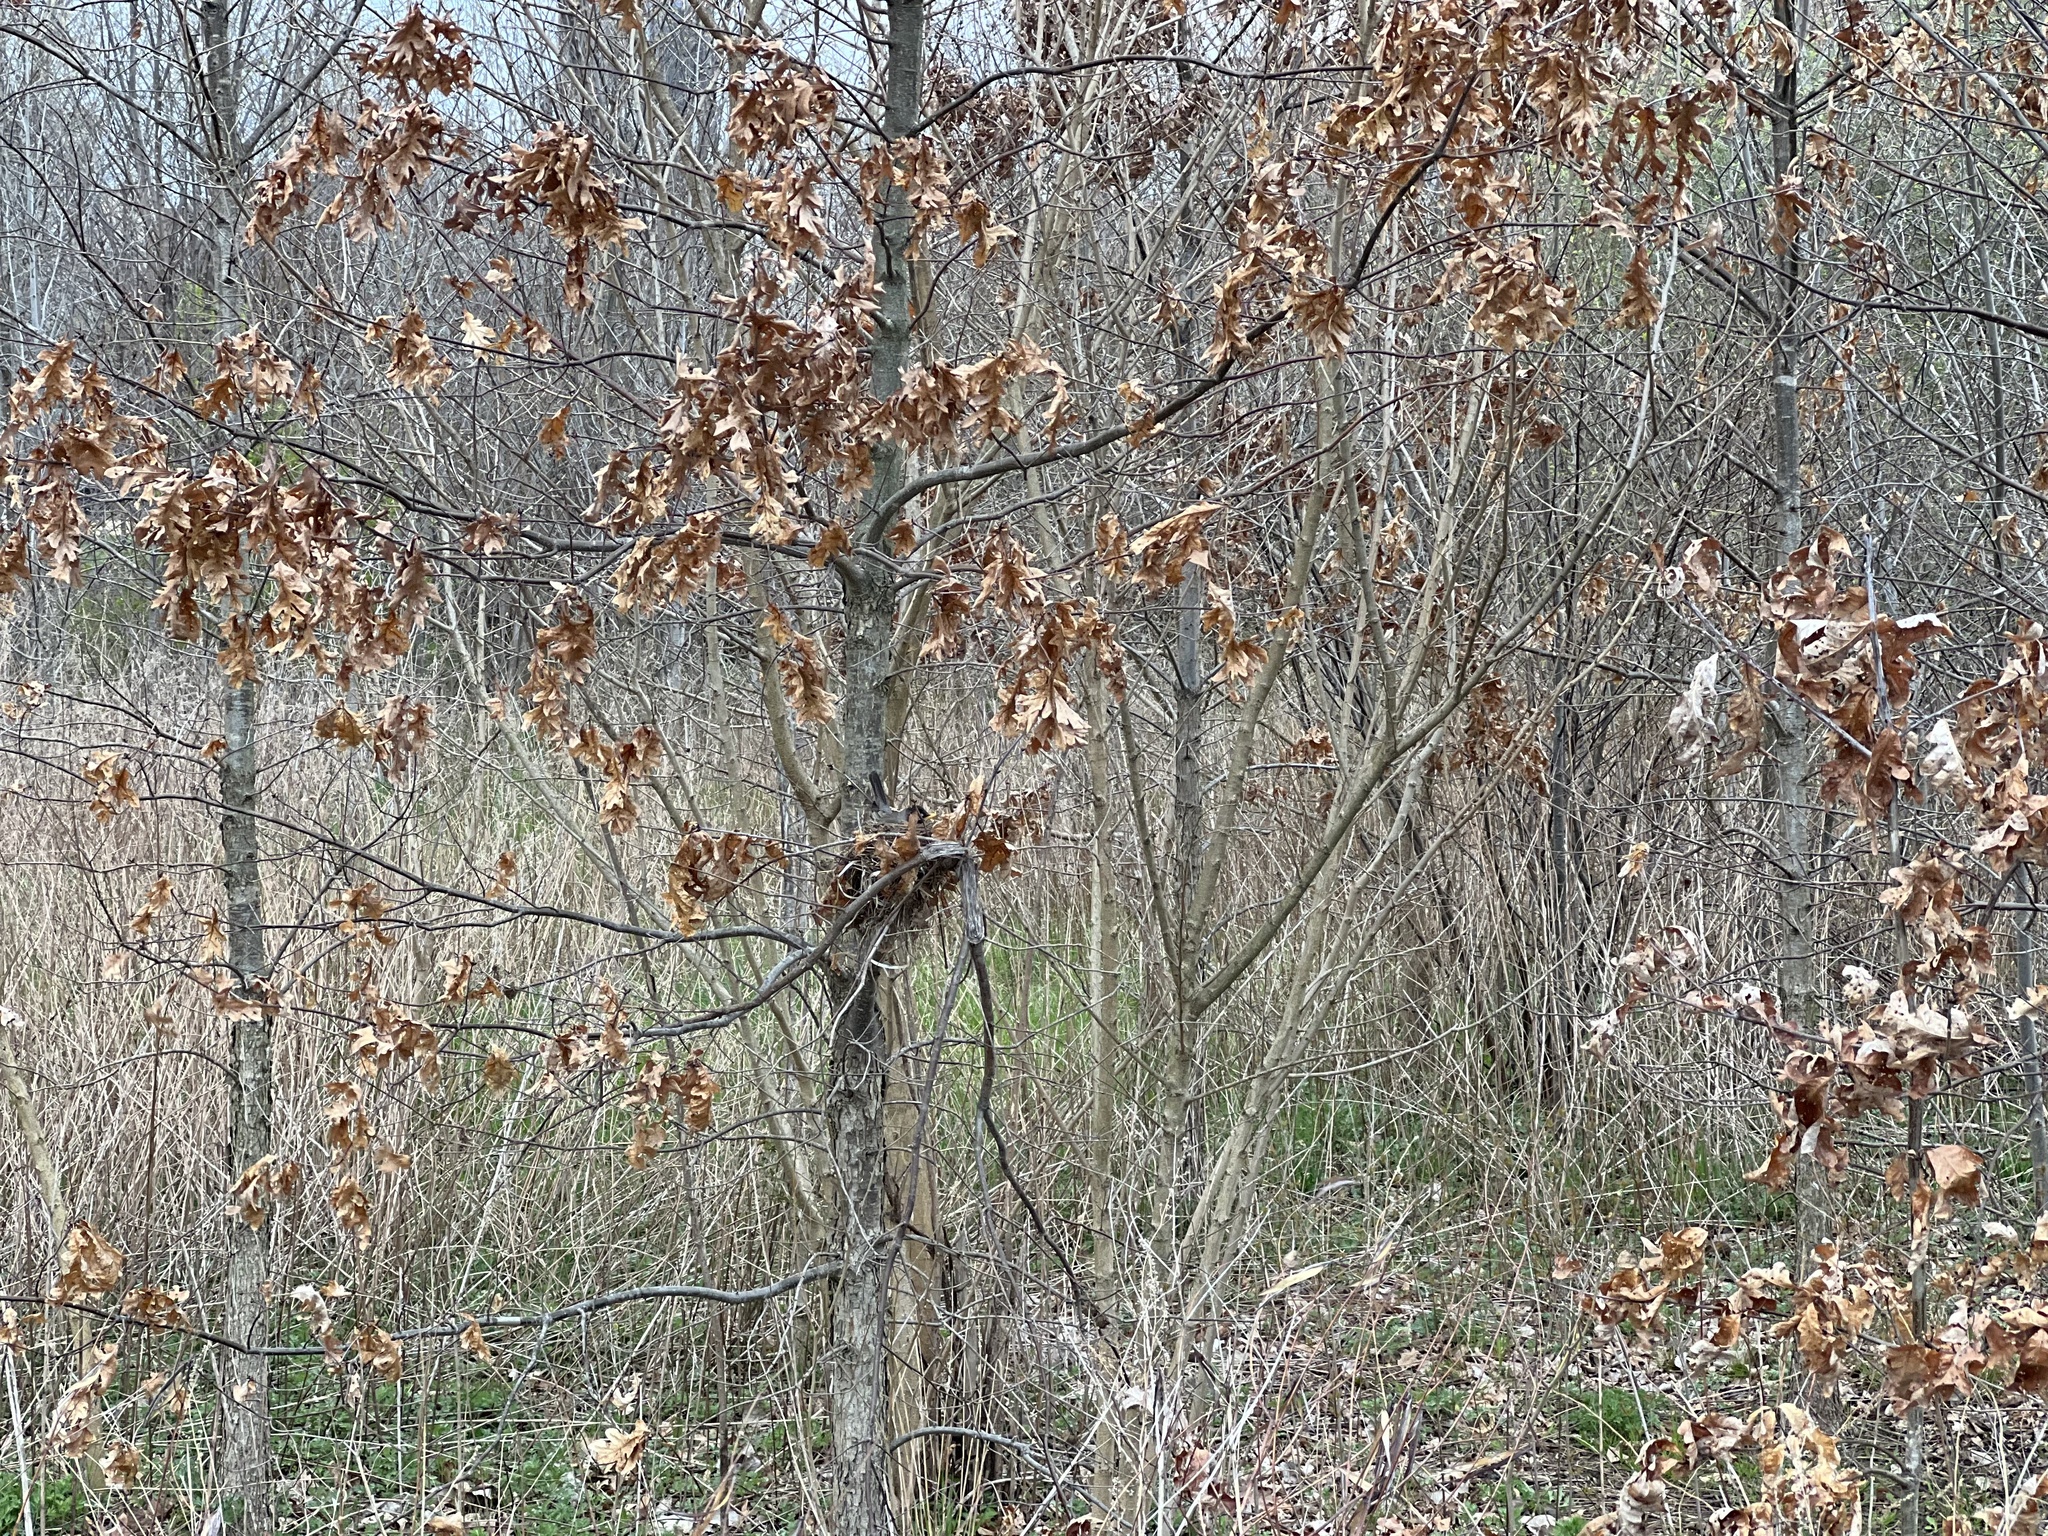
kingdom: Animalia
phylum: Chordata
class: Aves
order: Passeriformes
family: Turdidae
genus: Turdus
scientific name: Turdus migratorius
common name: American robin
